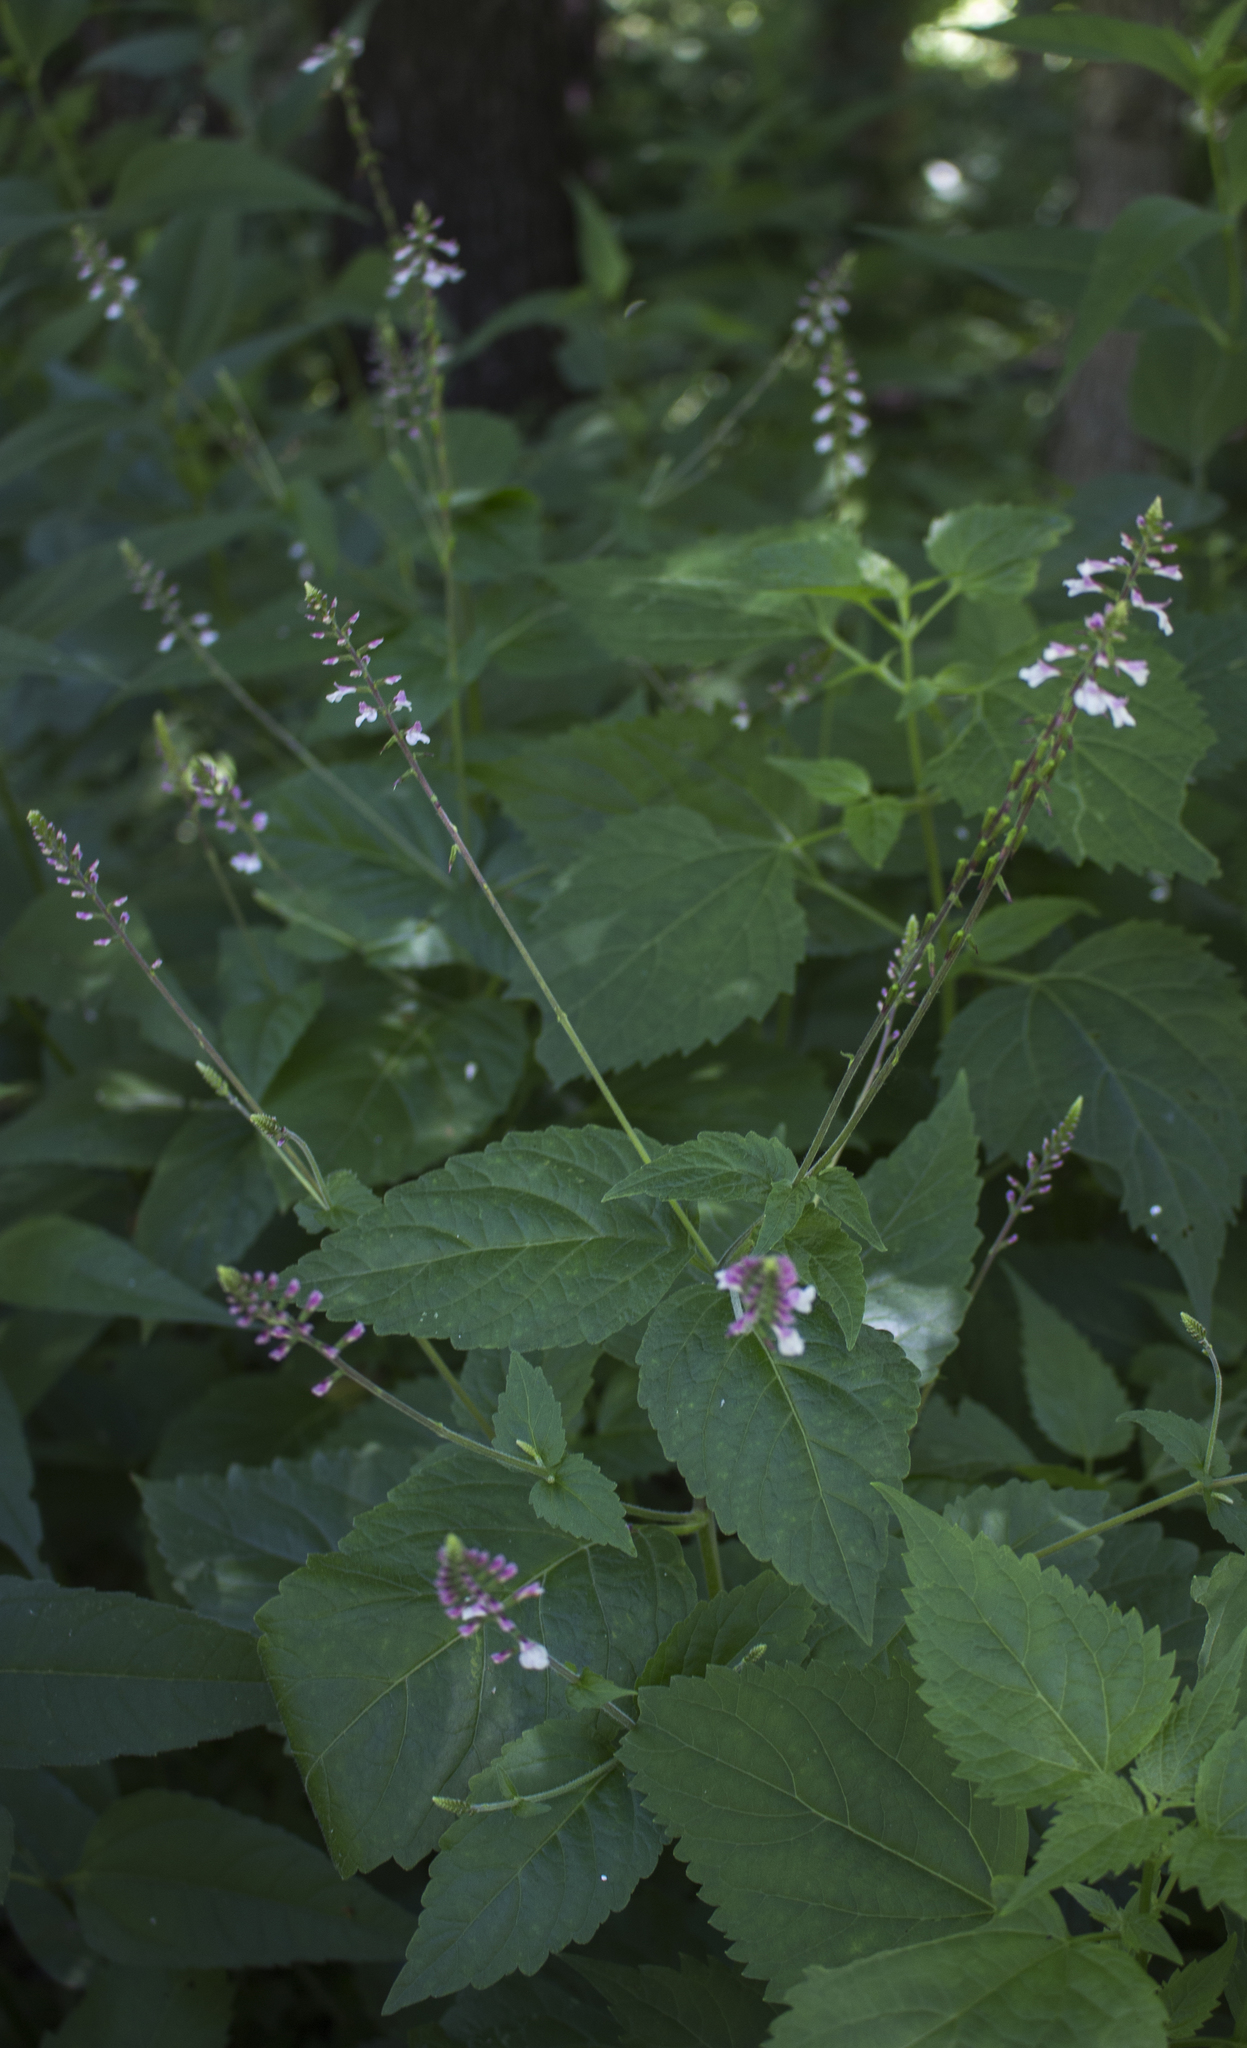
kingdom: Plantae
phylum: Tracheophyta
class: Magnoliopsida
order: Lamiales
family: Phrymaceae
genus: Phryma
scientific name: Phryma leptostachya
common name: American lopseed
